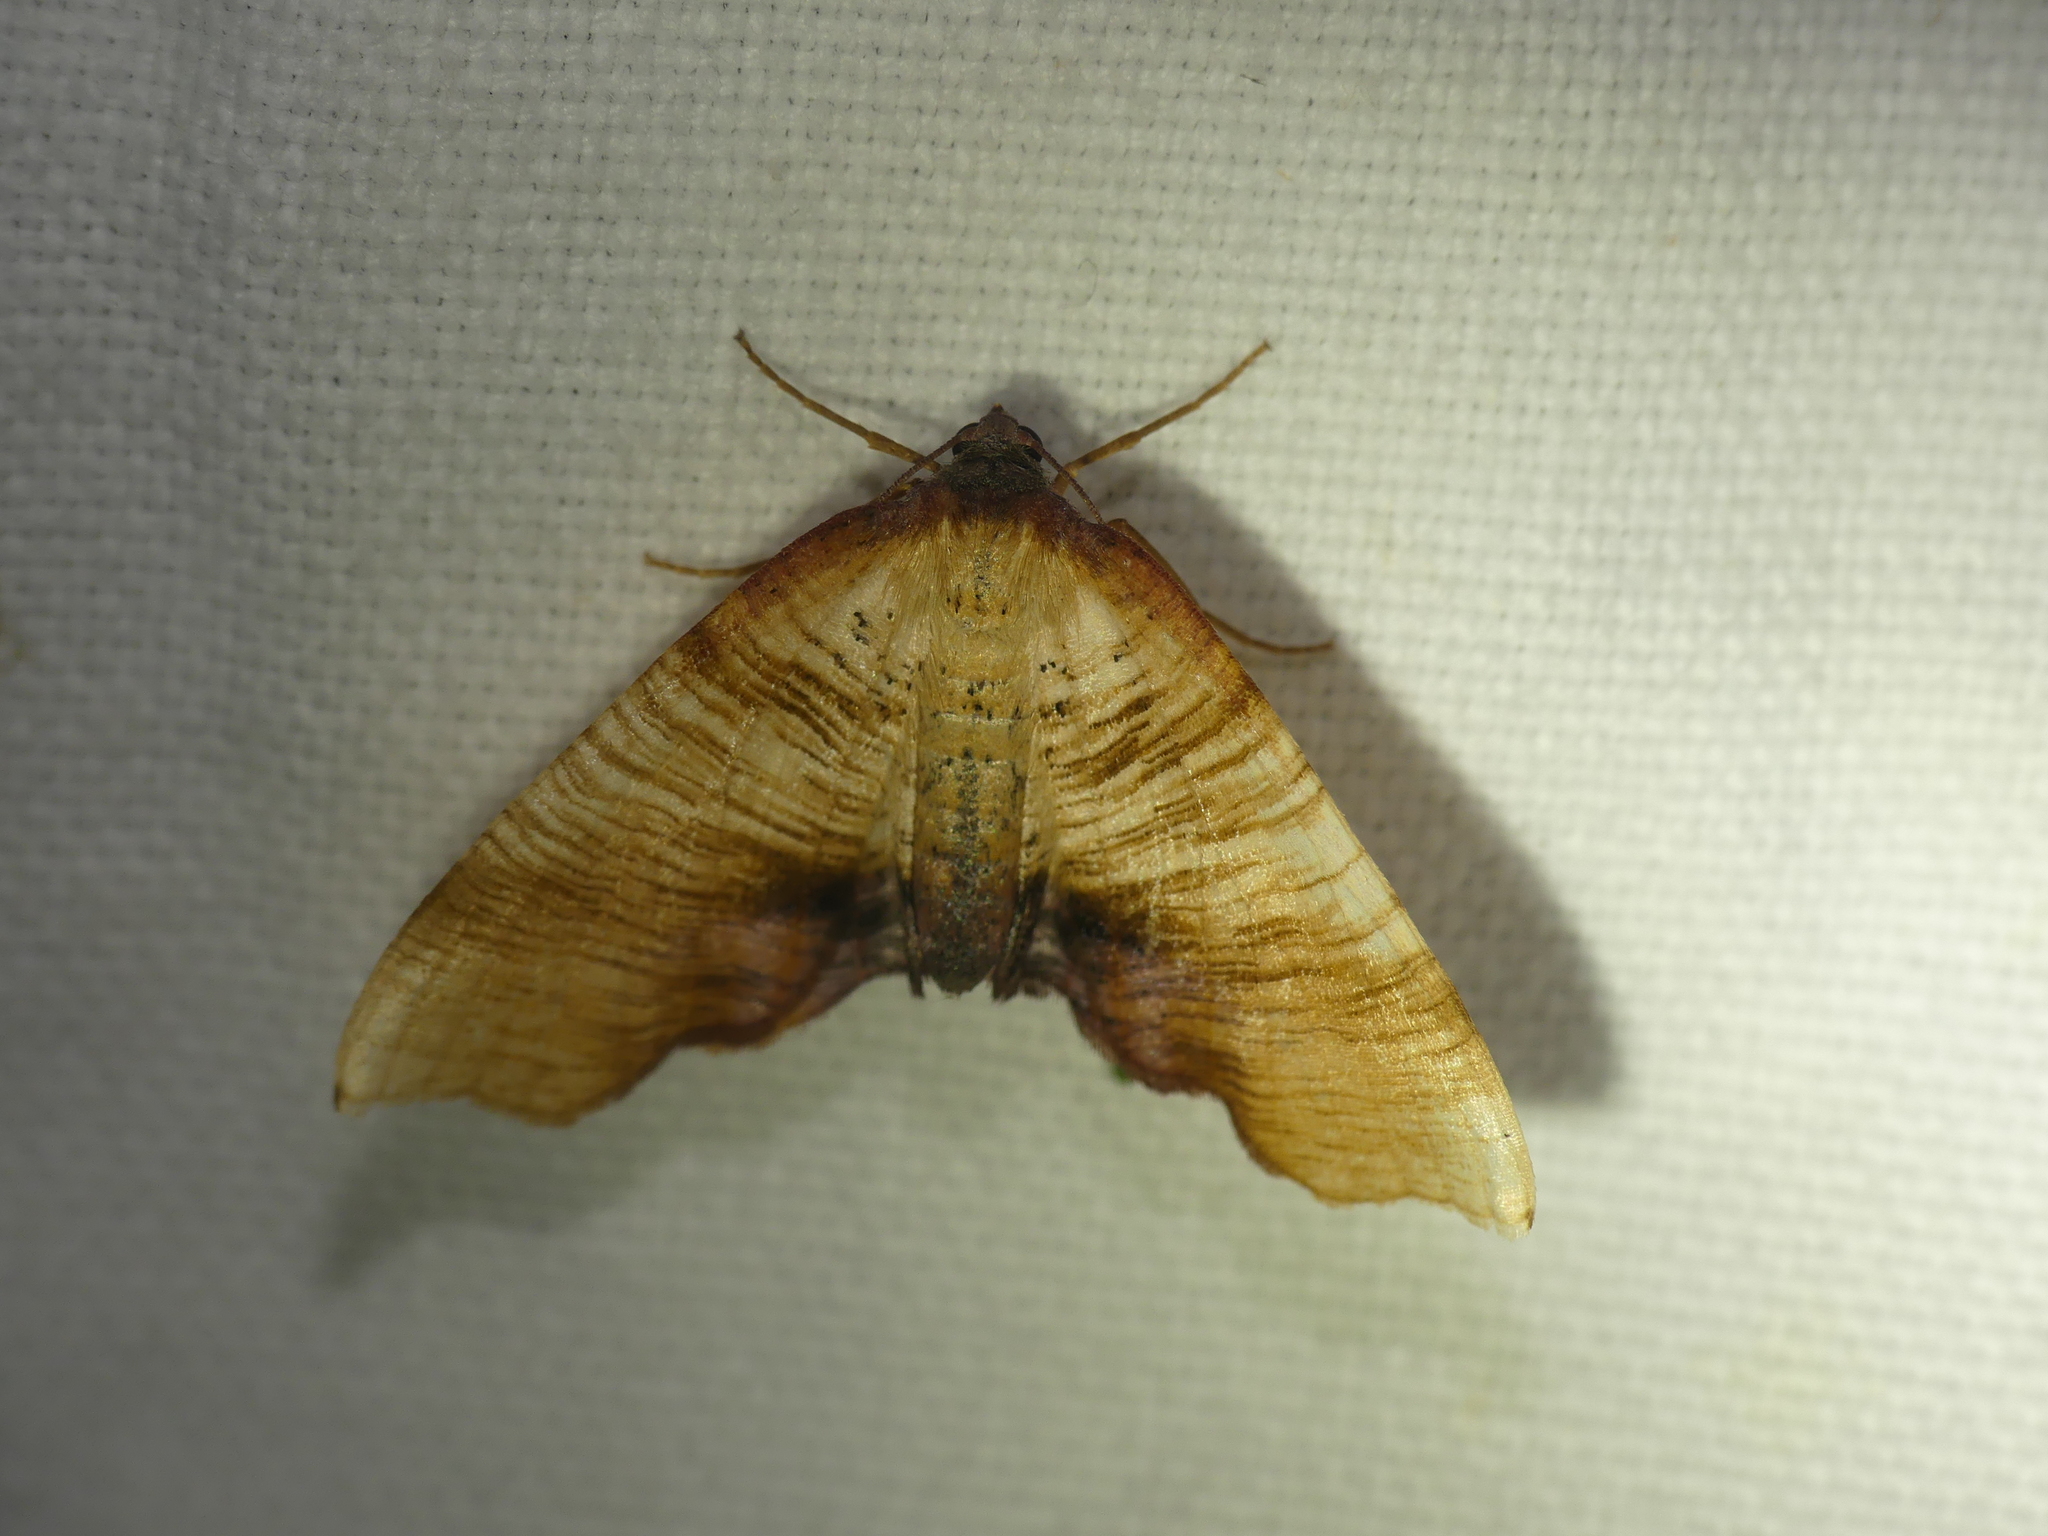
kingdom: Animalia
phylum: Arthropoda
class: Insecta
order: Lepidoptera
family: Geometridae
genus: Plagodis
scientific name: Plagodis dolabraria
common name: Scorched wing
